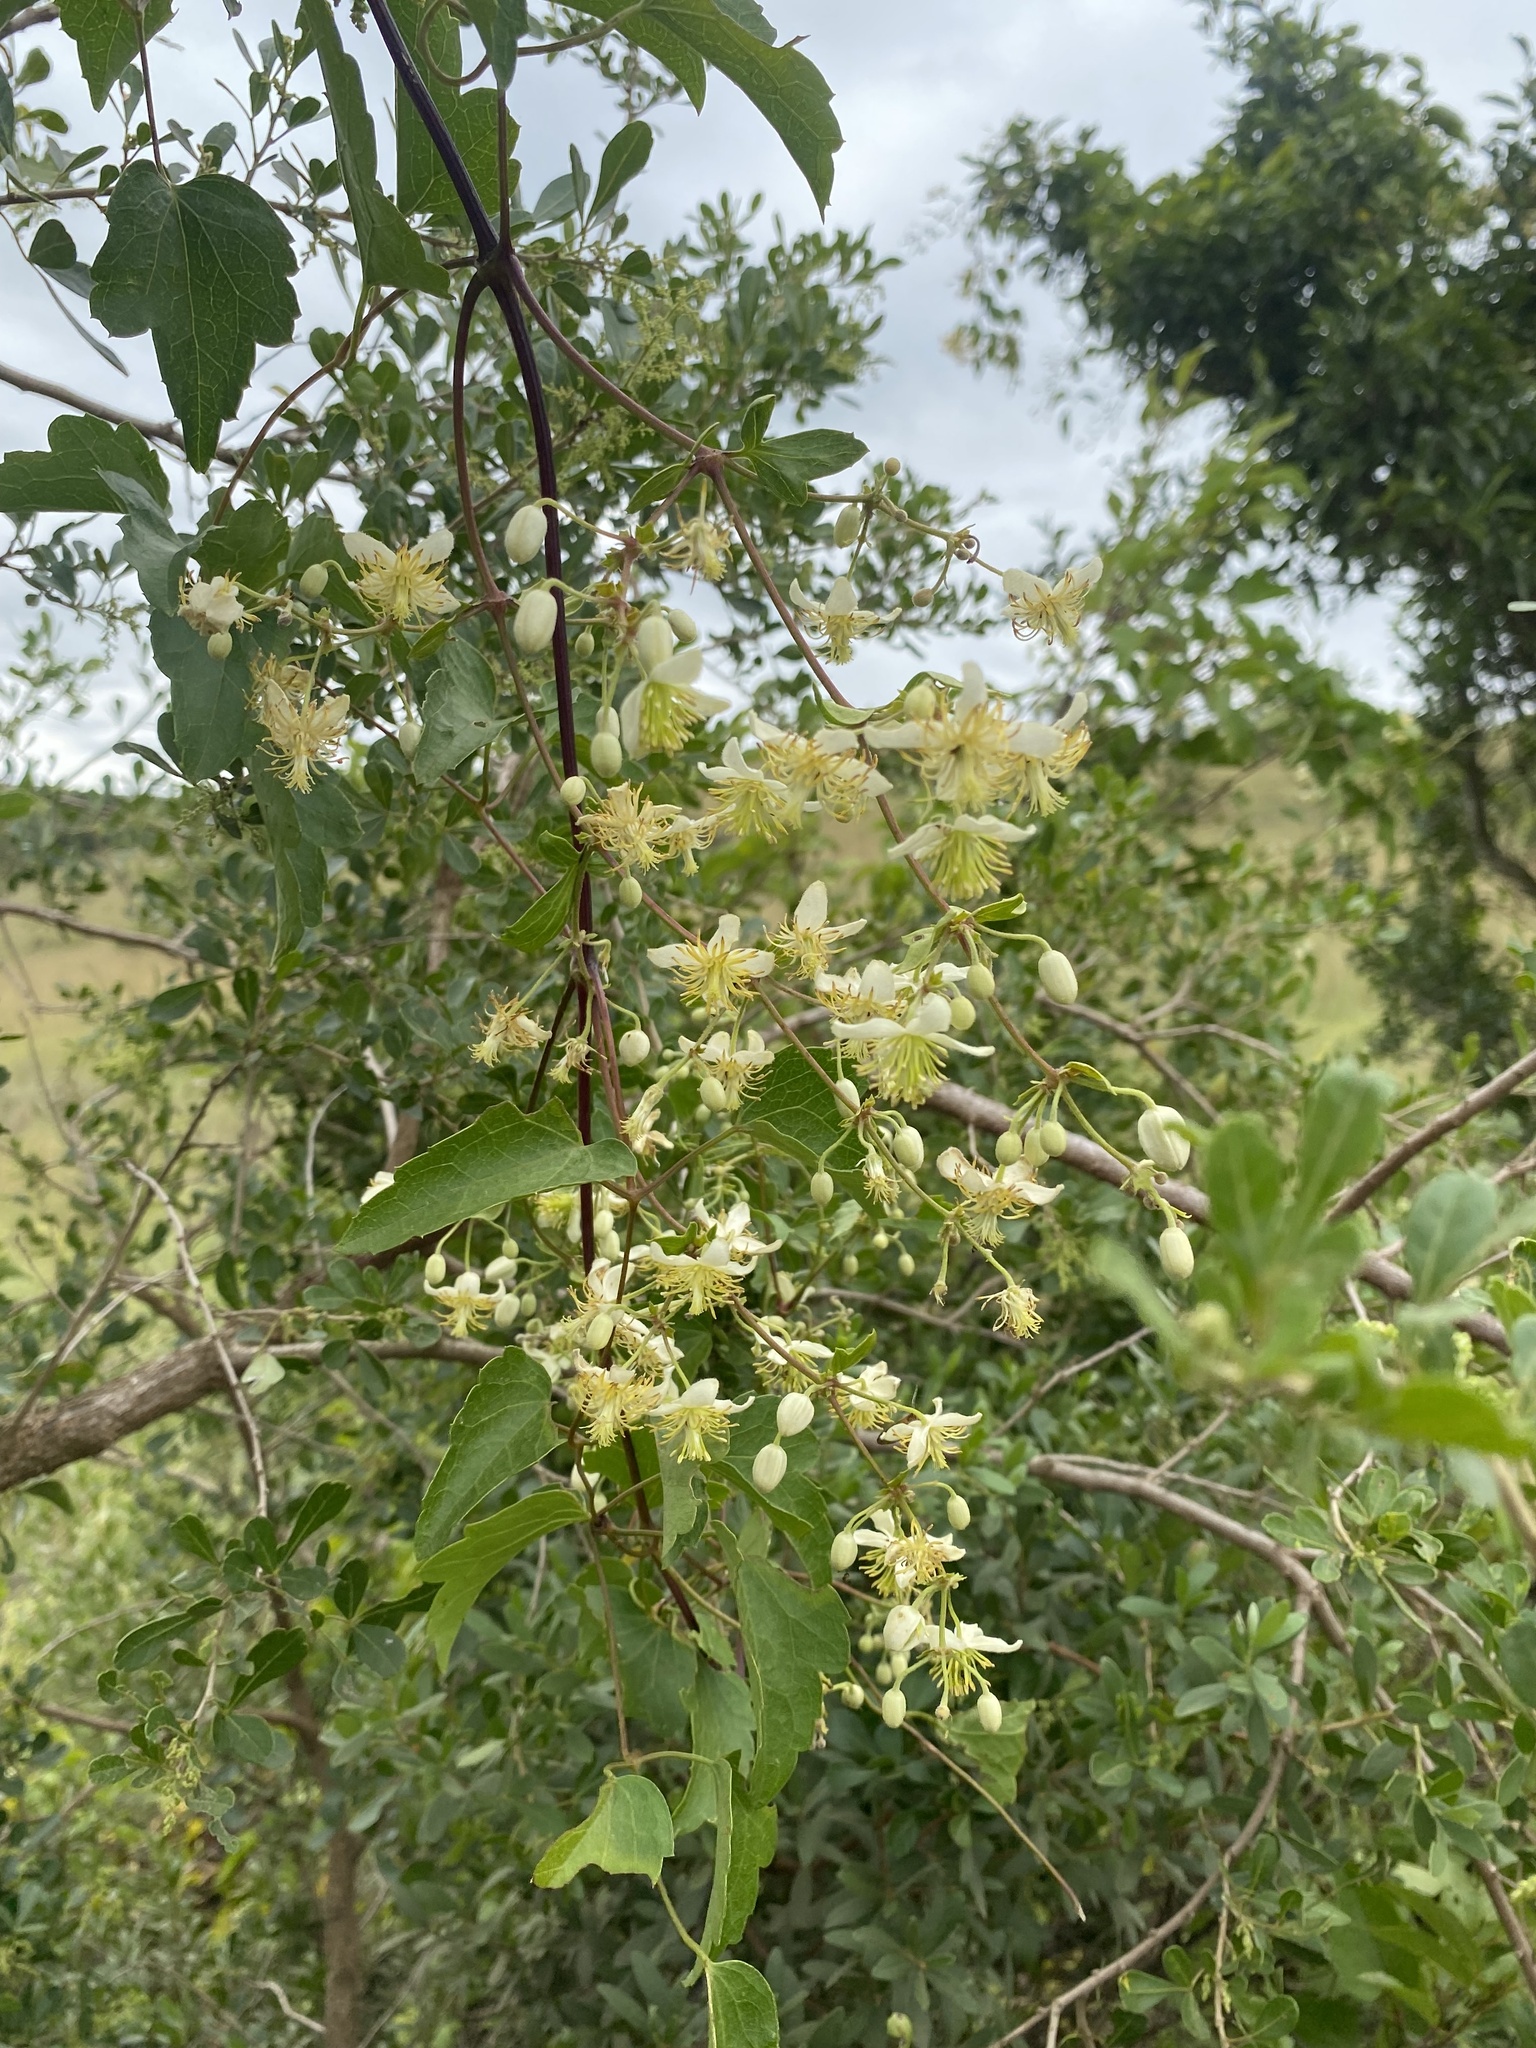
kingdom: Plantae
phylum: Tracheophyta
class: Magnoliopsida
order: Ranunculales
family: Ranunculaceae
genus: Clematis
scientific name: Clematis brachiata
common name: Traveler's-joy
